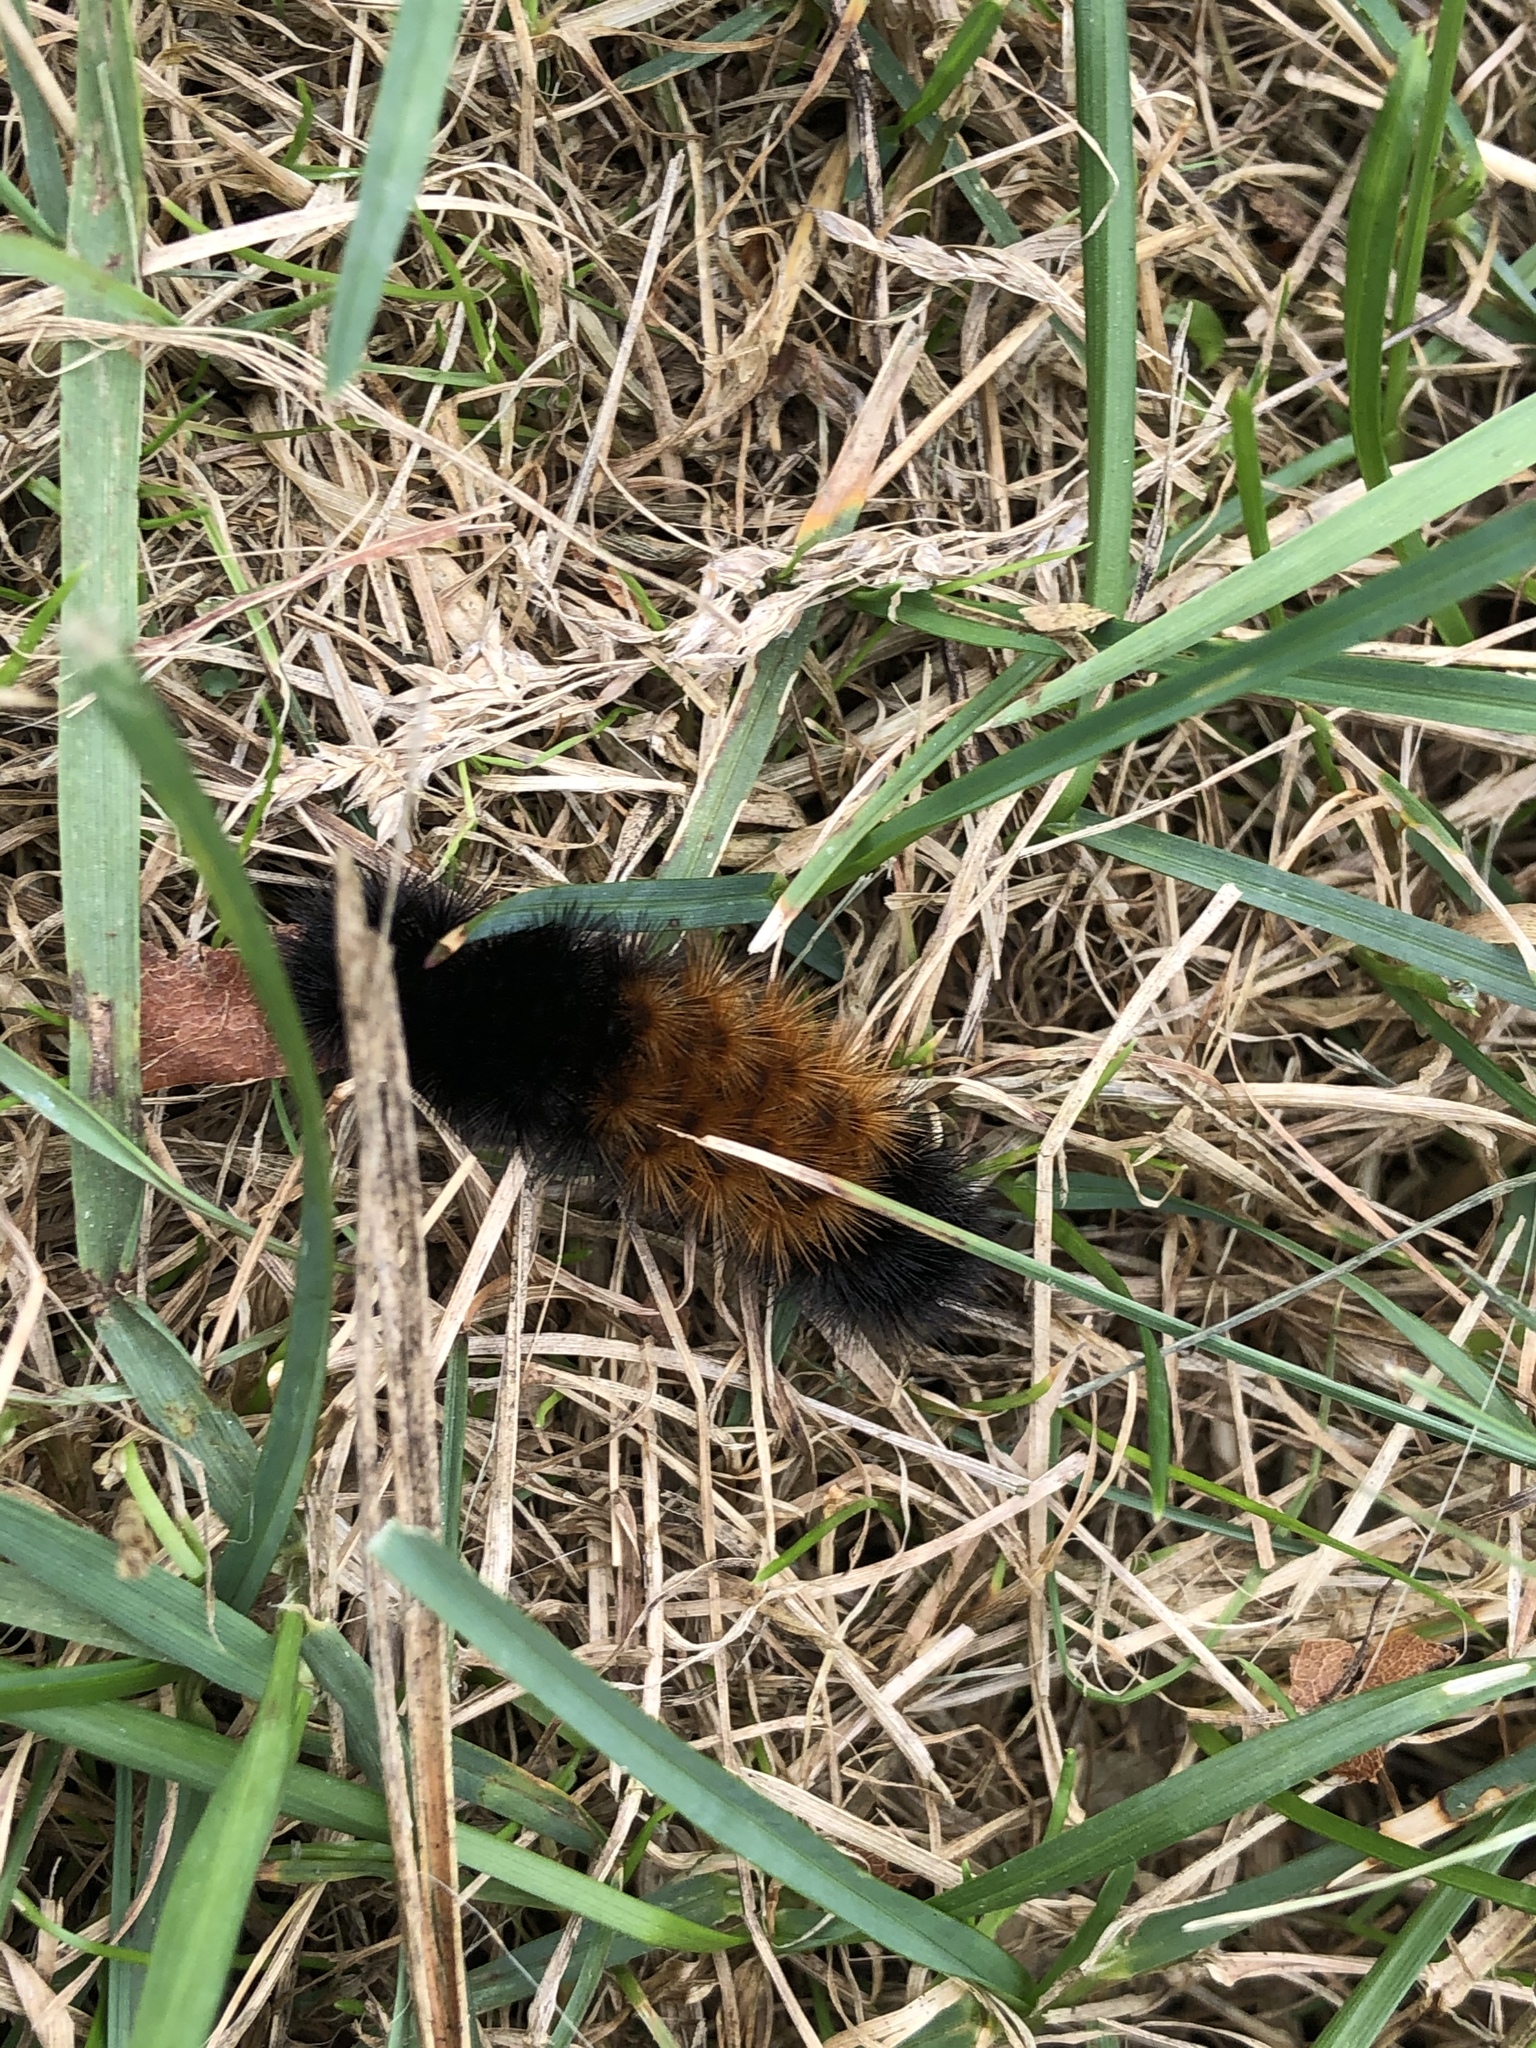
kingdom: Animalia
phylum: Arthropoda
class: Insecta
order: Lepidoptera
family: Erebidae
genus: Pyrrharctia
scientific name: Pyrrharctia isabella
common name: Isabella tiger moth
